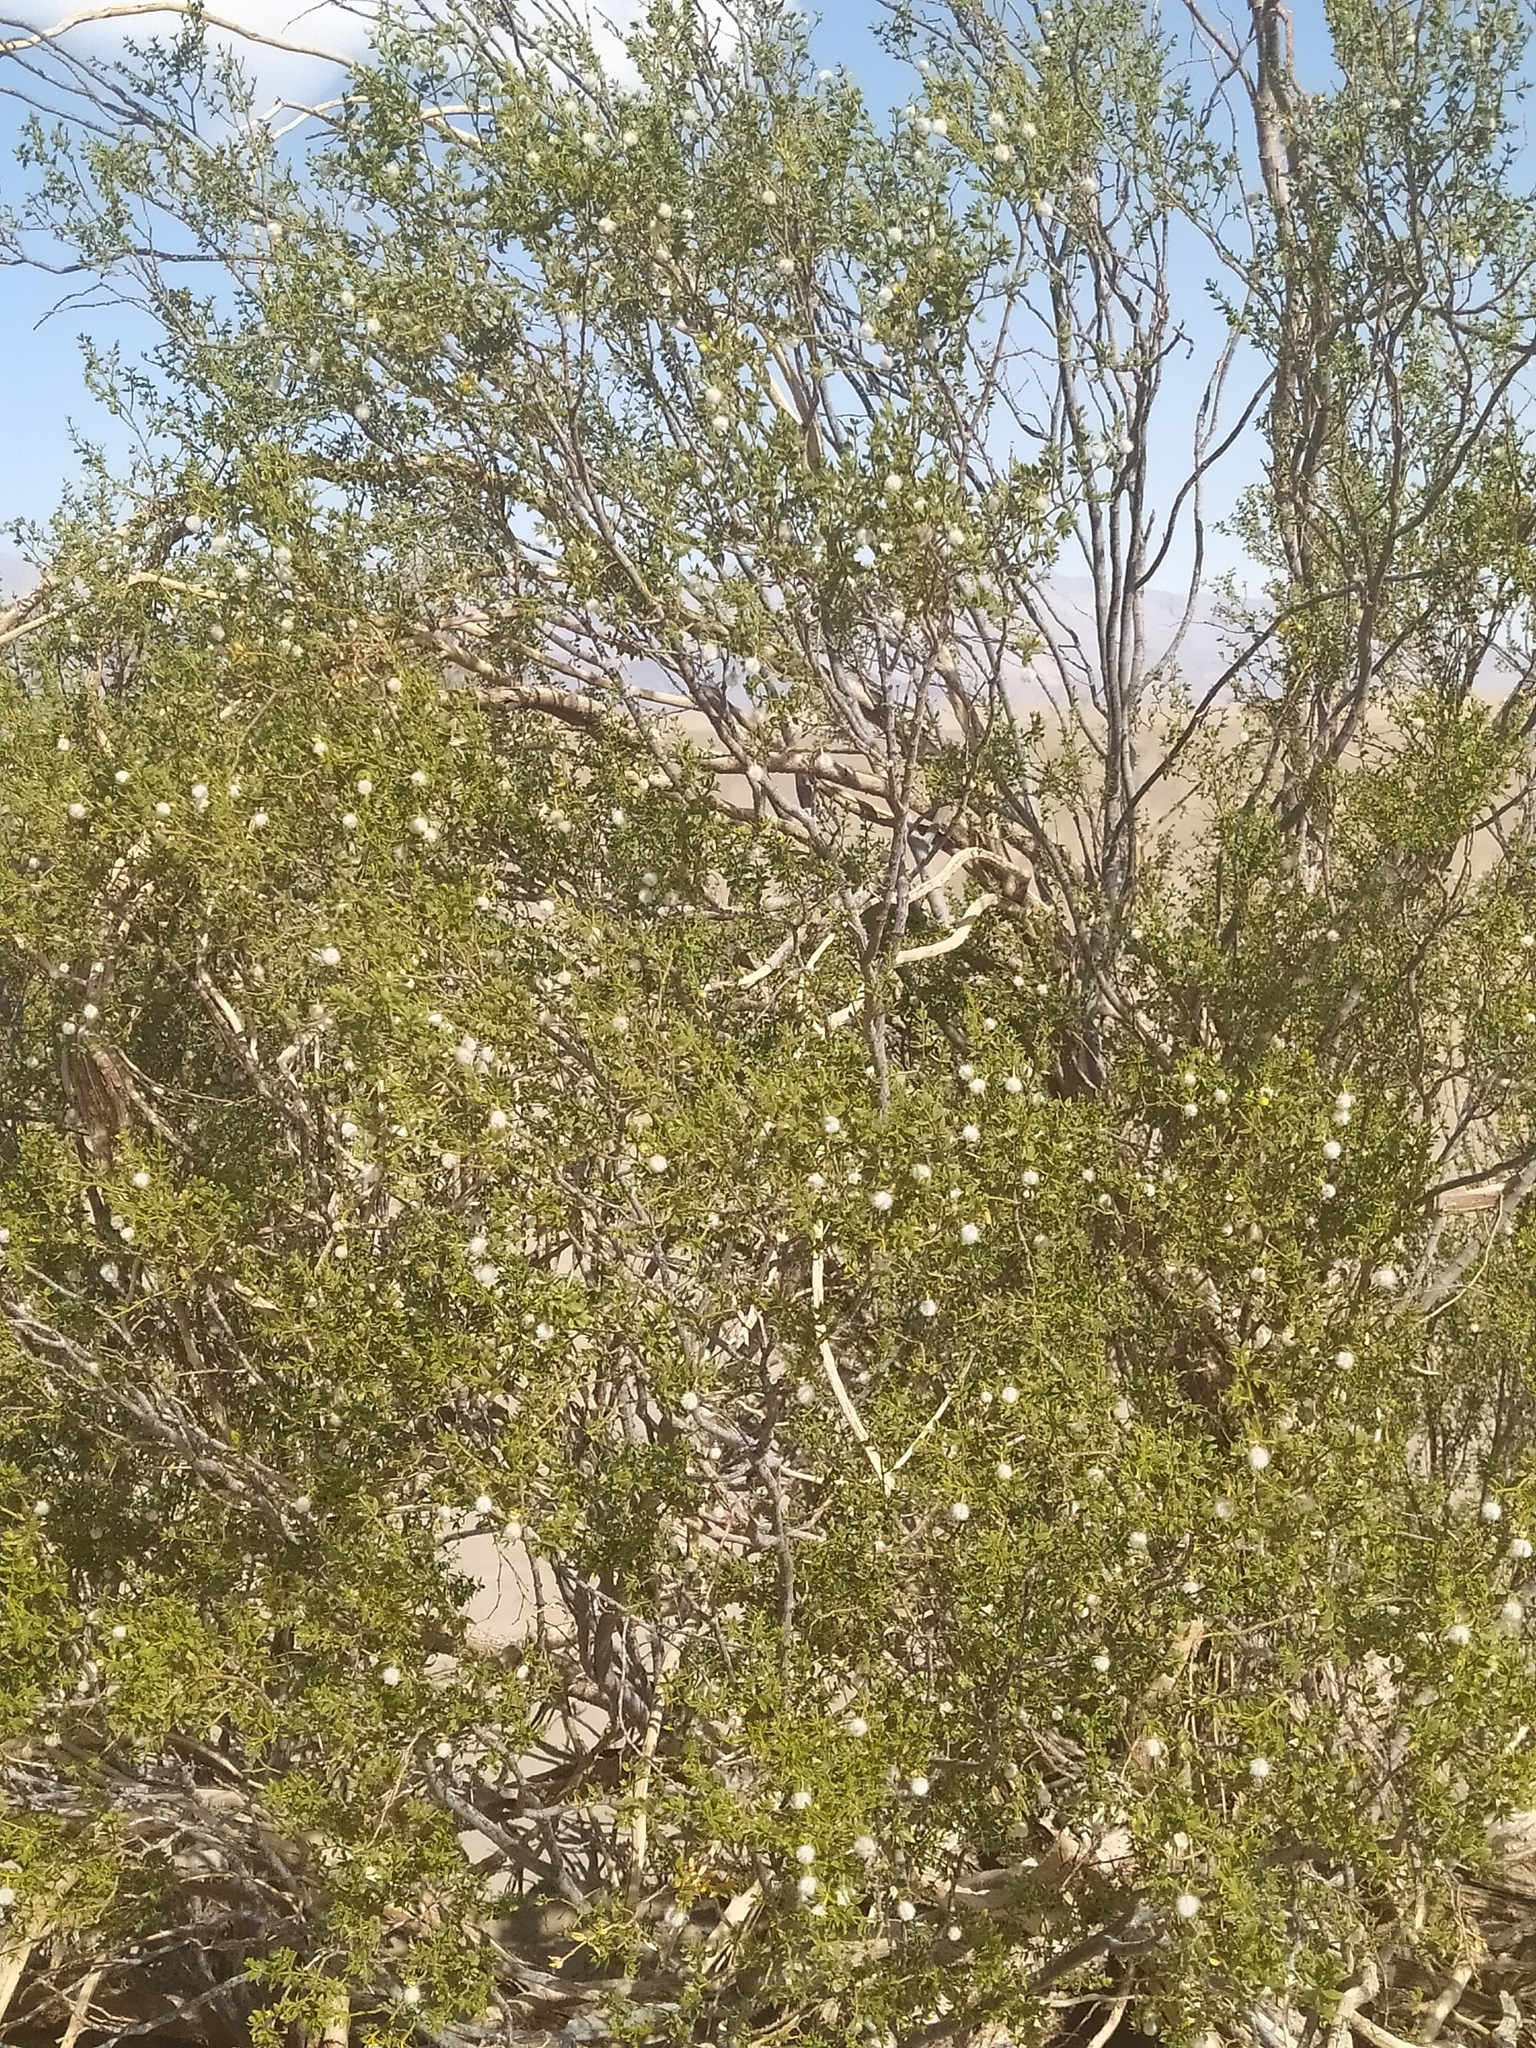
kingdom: Plantae
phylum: Tracheophyta
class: Magnoliopsida
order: Zygophyllales
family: Zygophyllaceae
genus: Larrea
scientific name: Larrea tridentata
